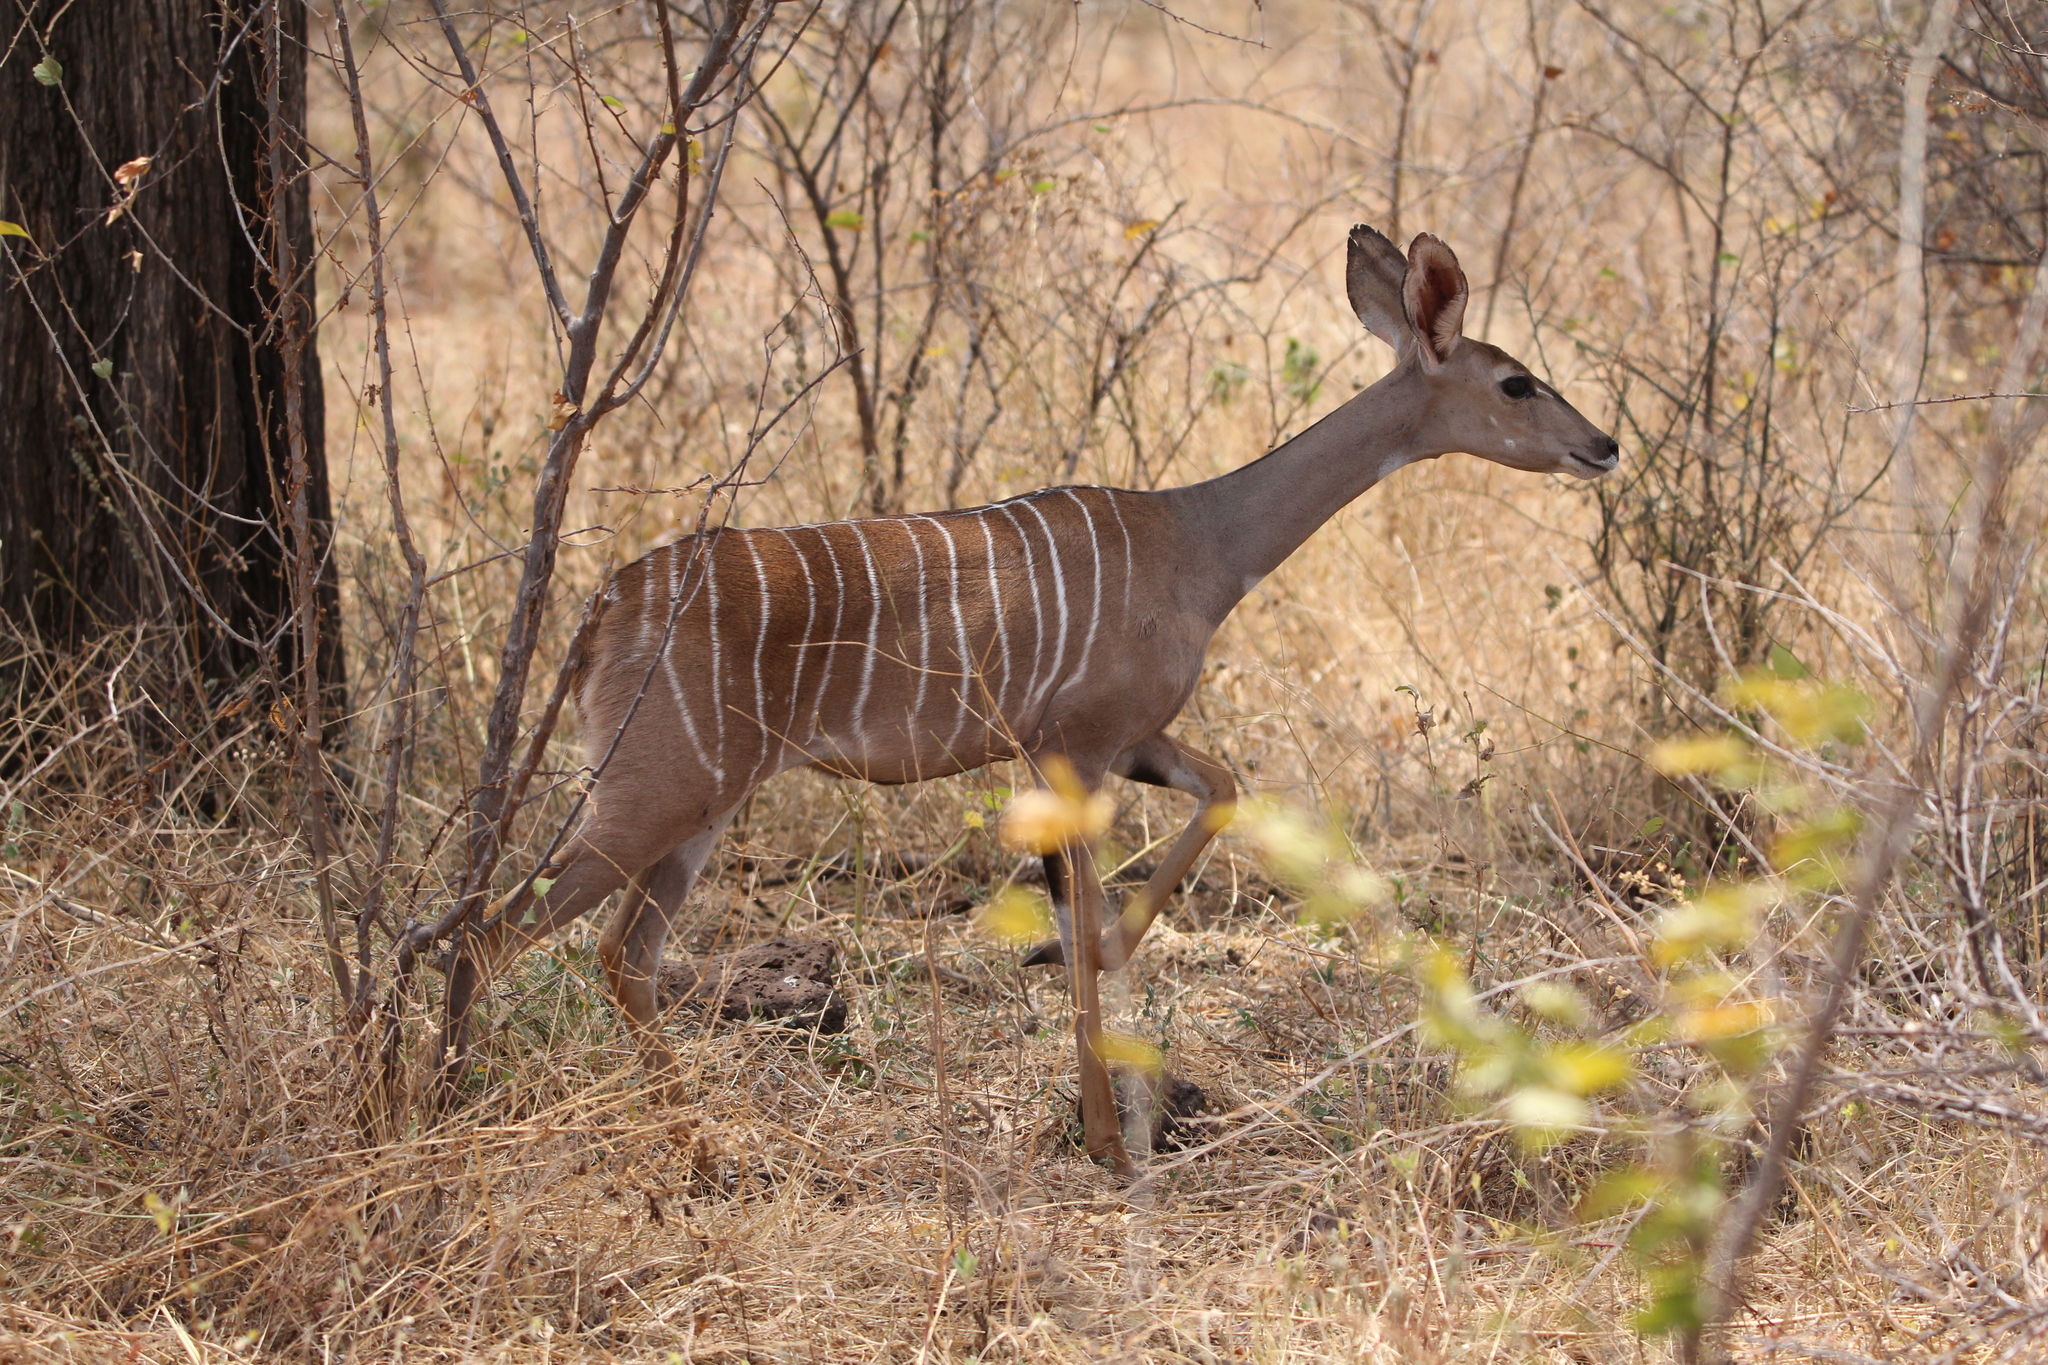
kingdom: Animalia
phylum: Chordata
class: Mammalia
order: Artiodactyla
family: Bovidae
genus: Tragelaphus
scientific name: Tragelaphus imberbis
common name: Lesser kudu
